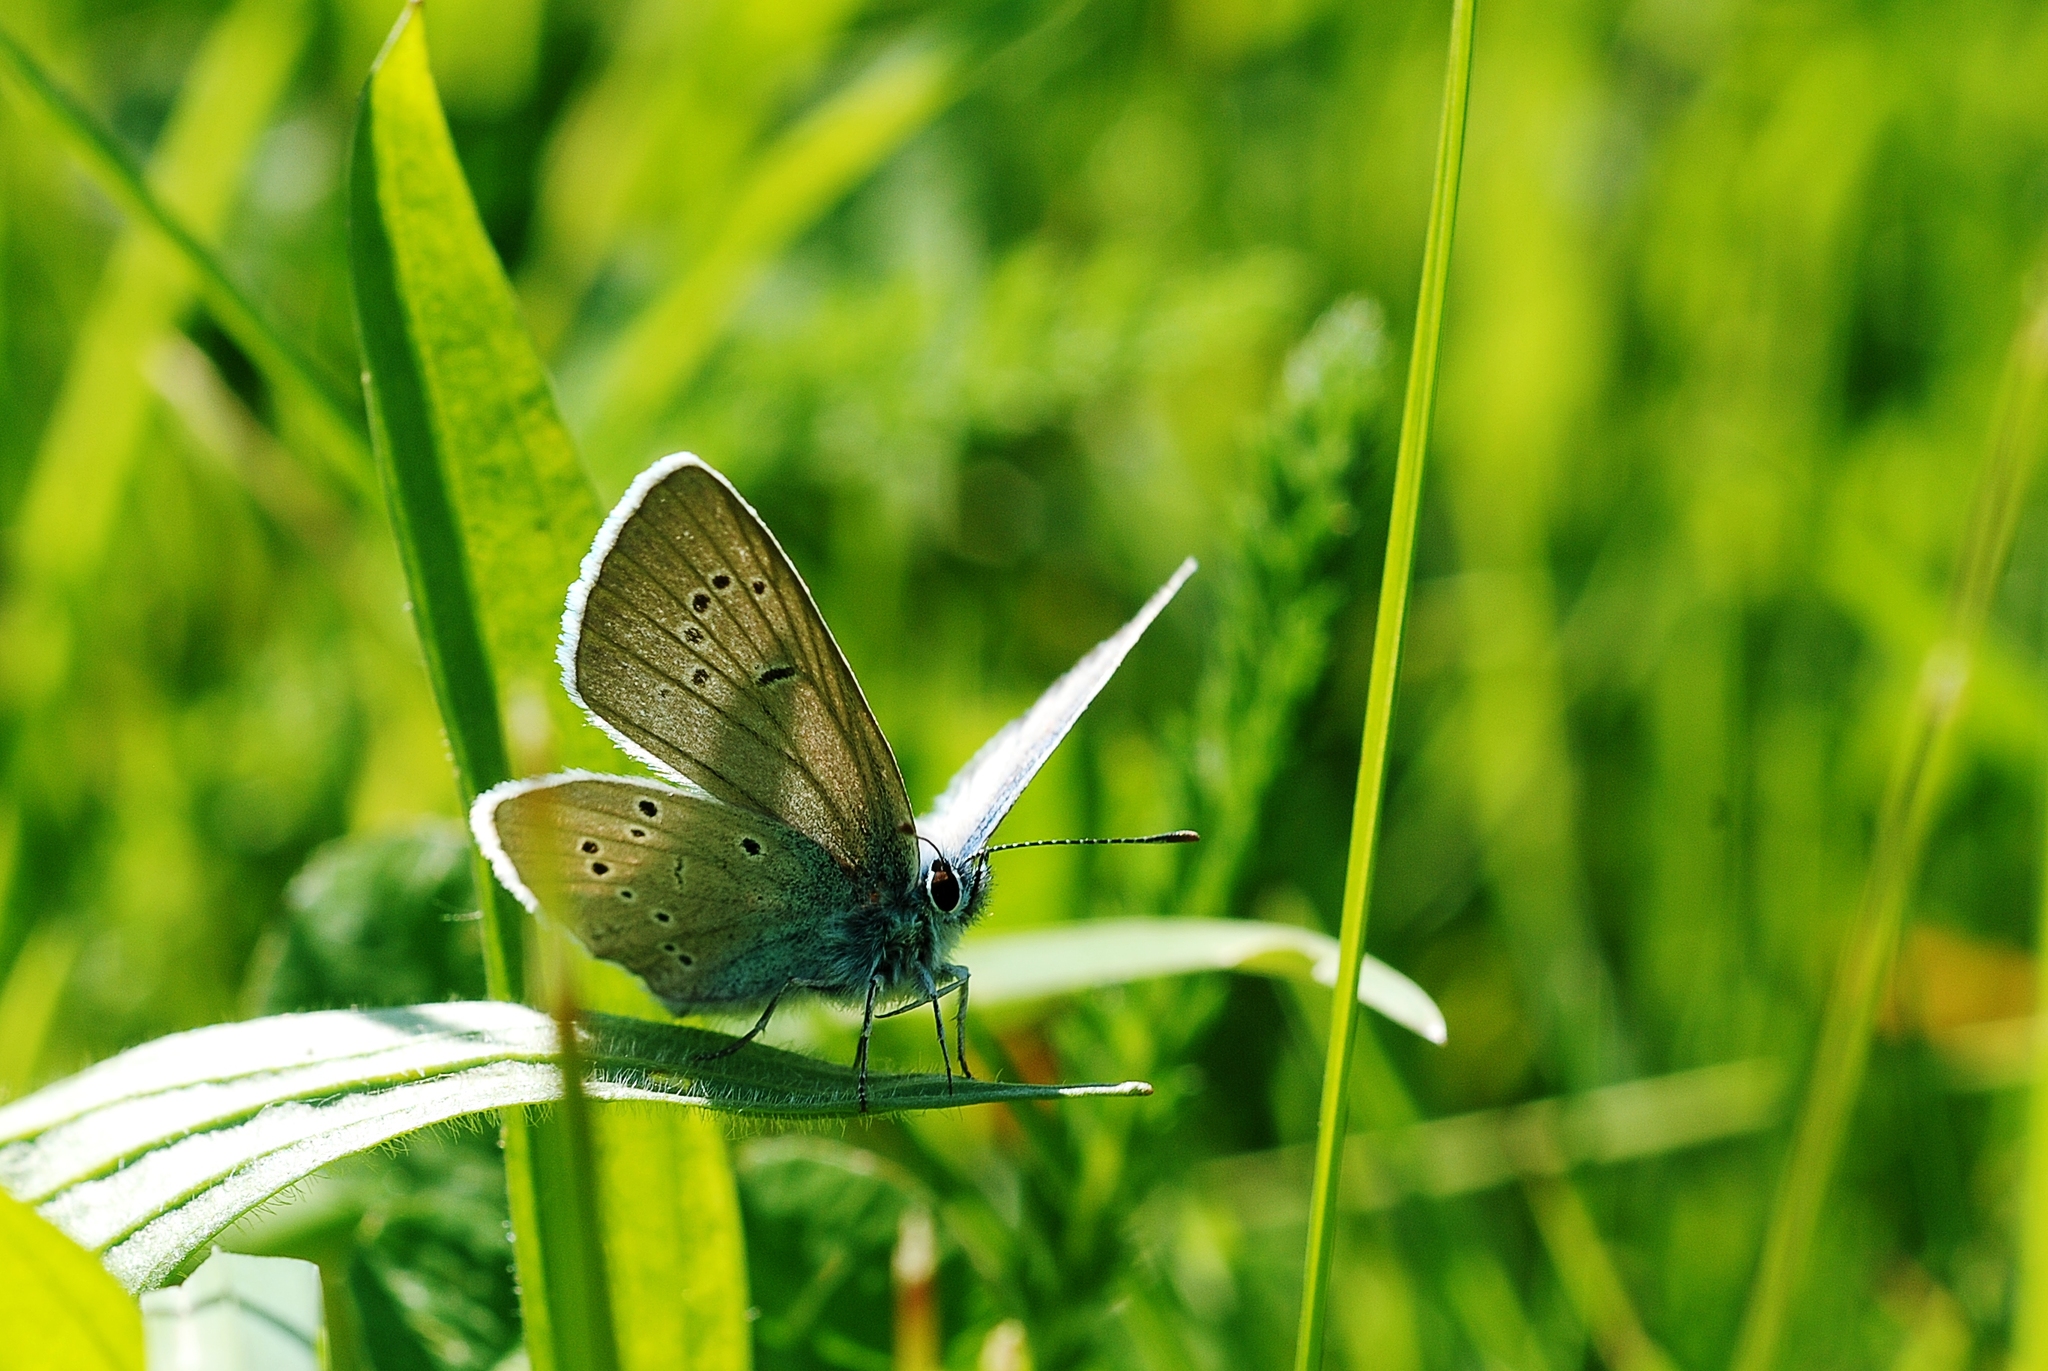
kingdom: Animalia
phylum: Arthropoda
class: Insecta
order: Lepidoptera
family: Lycaenidae
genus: Cyaniris
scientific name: Cyaniris semiargus
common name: Mazarine blue
